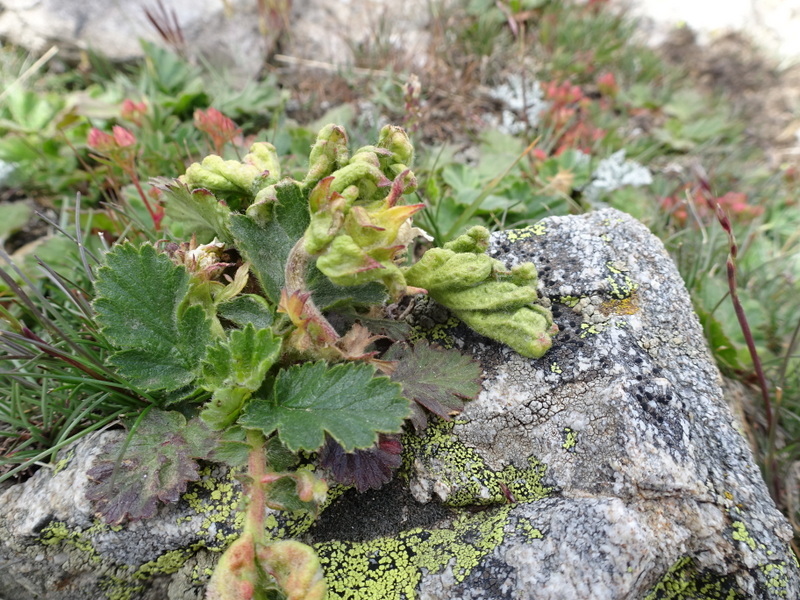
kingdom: Animalia
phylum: Arthropoda
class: Arachnida
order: Trombidiformes
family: Eriophyidae
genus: Cecidophyes
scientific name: Cecidophyes nudus
